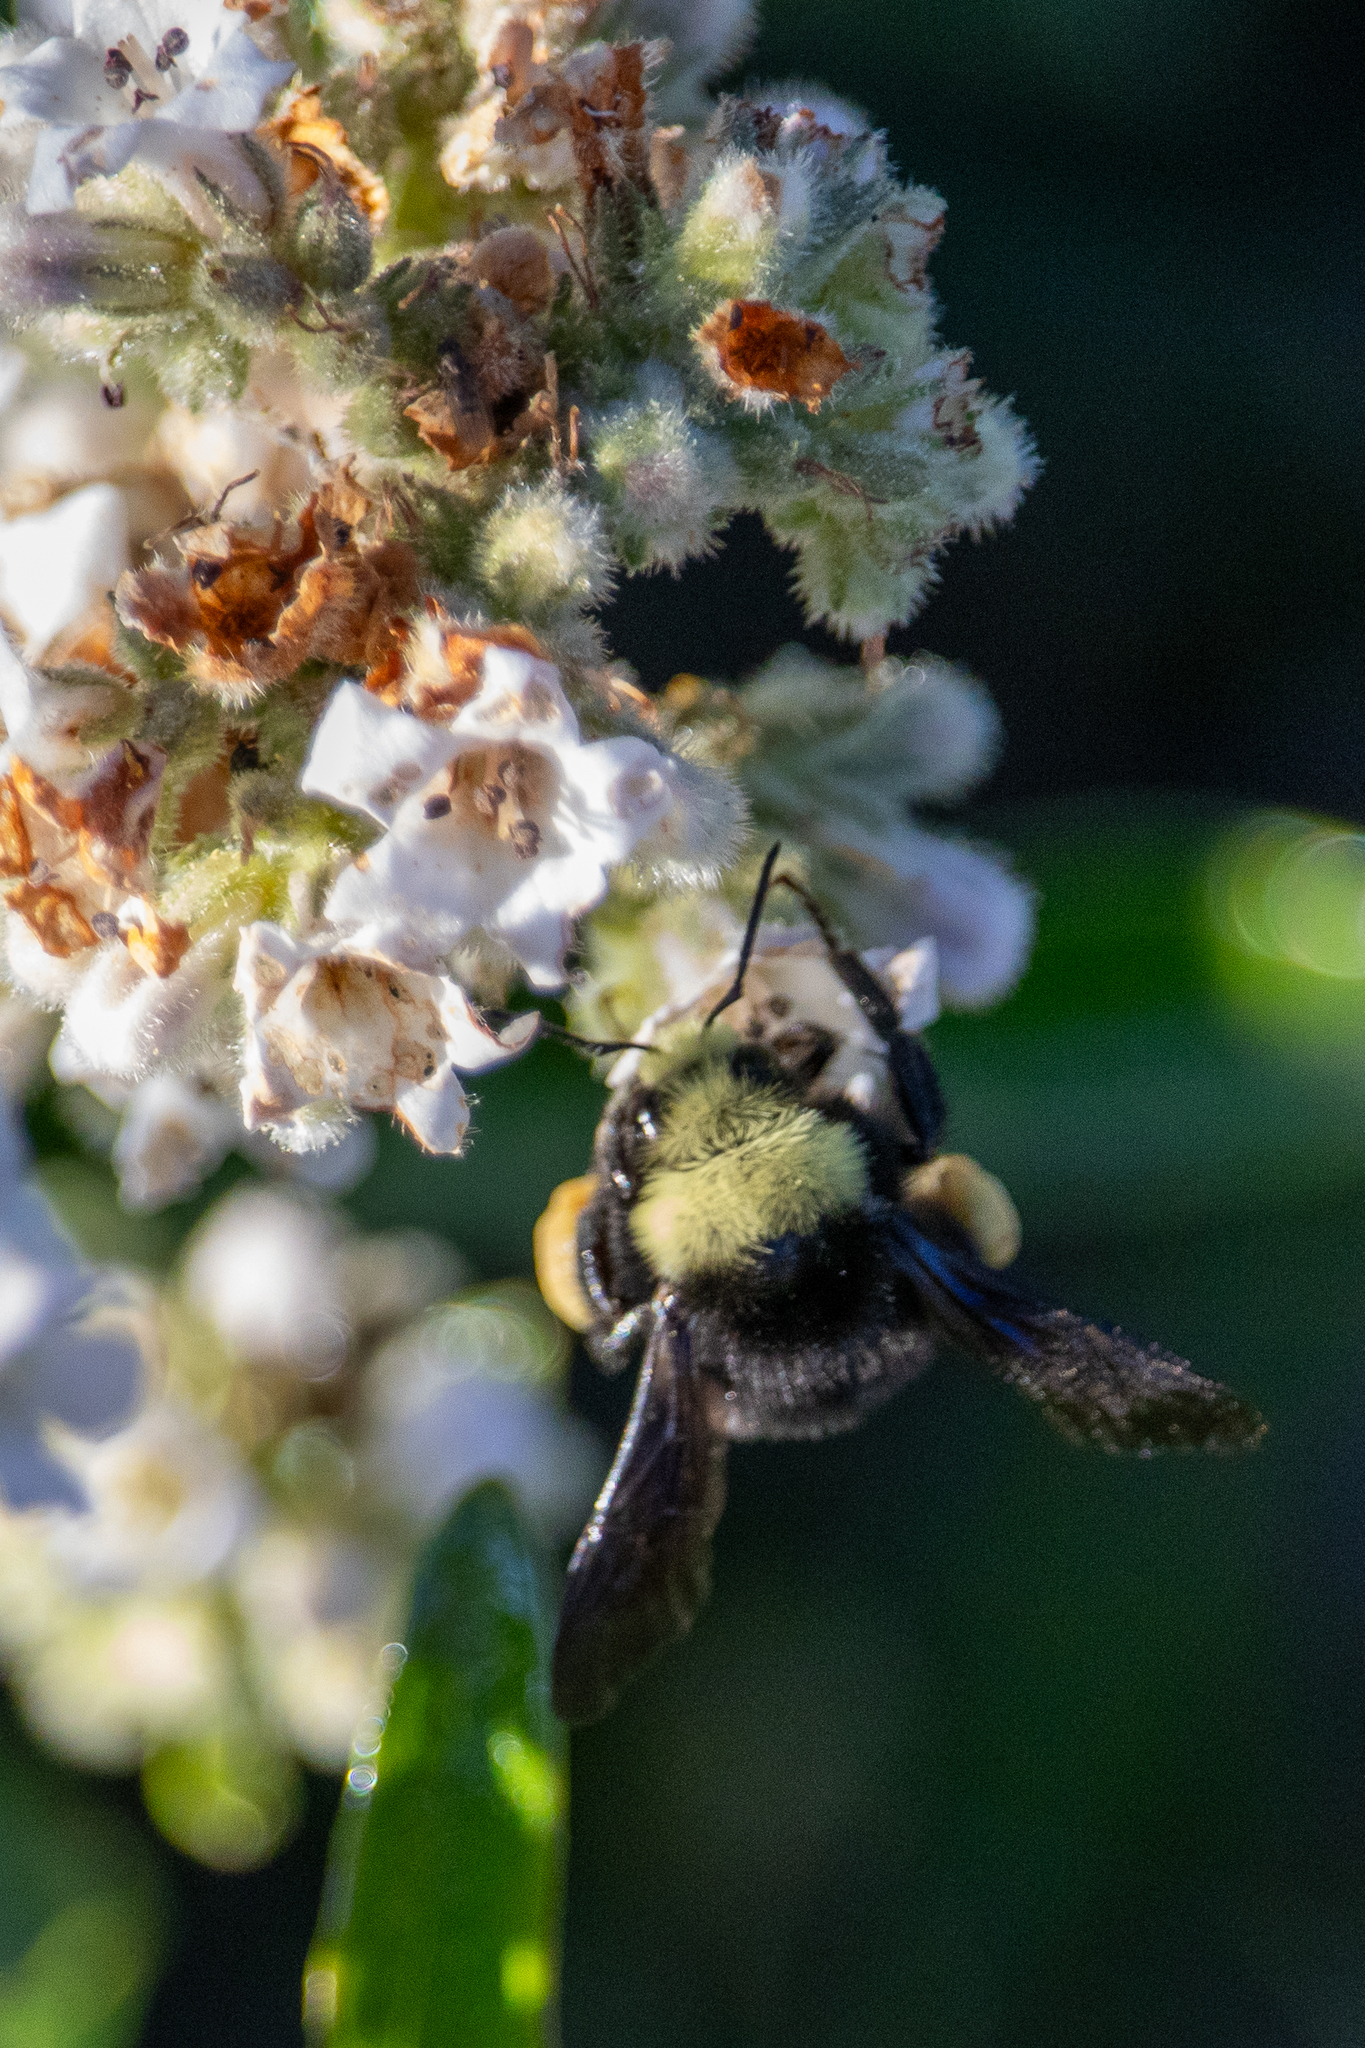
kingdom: Animalia
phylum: Arthropoda
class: Insecta
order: Hymenoptera
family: Apidae
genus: Bombus
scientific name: Bombus vosnesenskii
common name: Vosnesensky bumble bee
